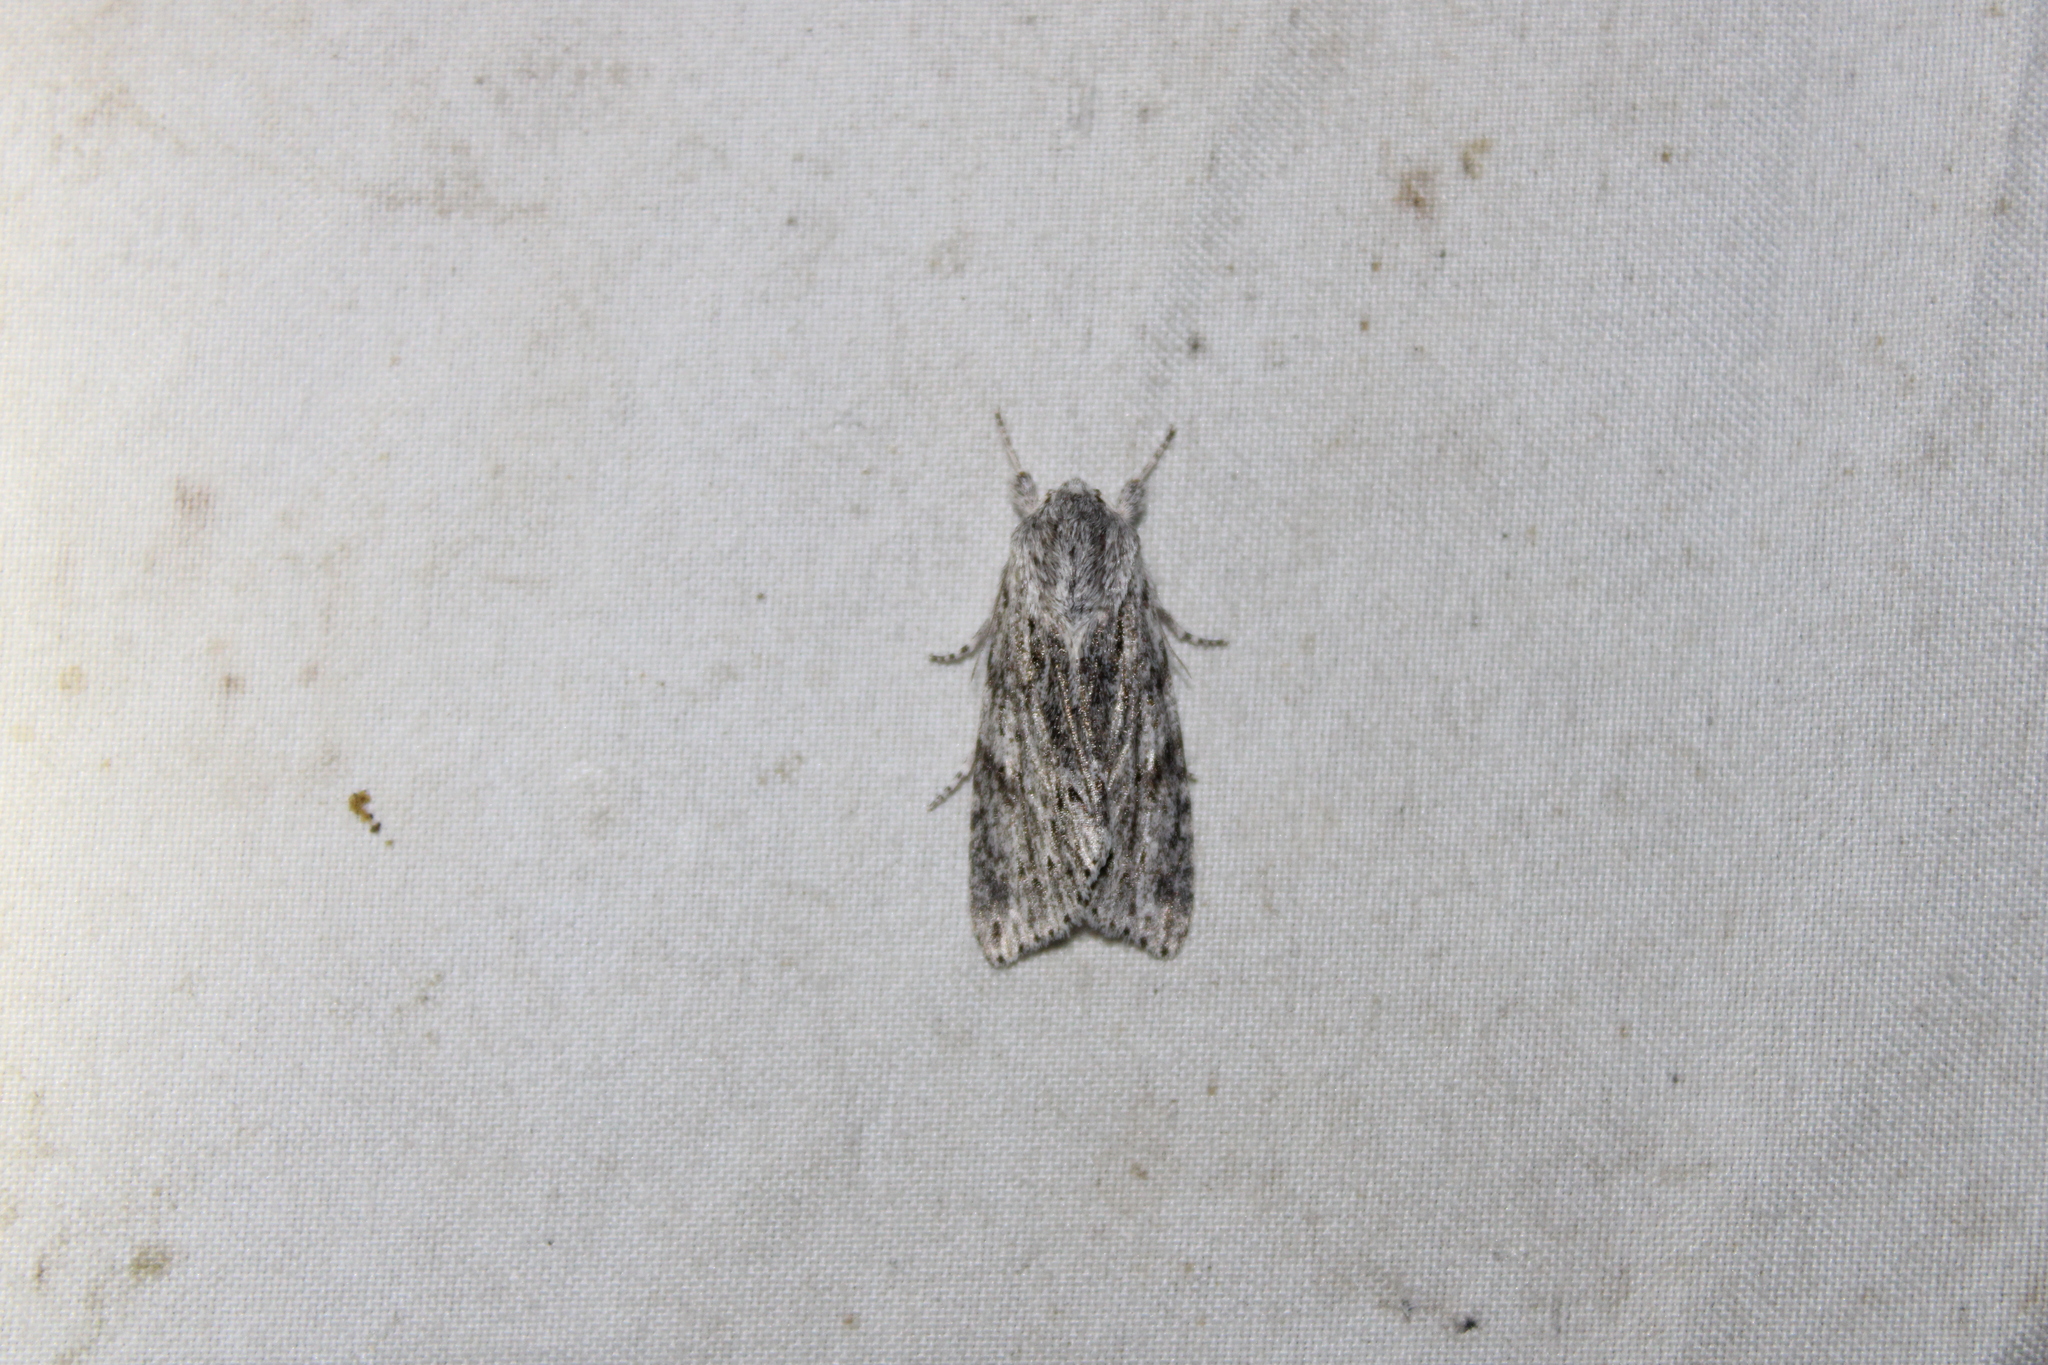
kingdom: Animalia
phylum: Arthropoda
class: Insecta
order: Lepidoptera
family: Noctuidae
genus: Acronicta
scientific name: Acronicta oblinita
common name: Smeared dagger
